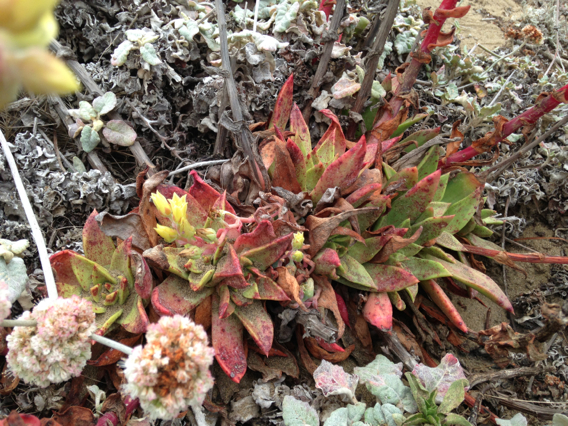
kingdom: Plantae
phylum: Tracheophyta
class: Magnoliopsida
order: Saxifragales
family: Crassulaceae
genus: Dudleya
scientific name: Dudleya farinosa
